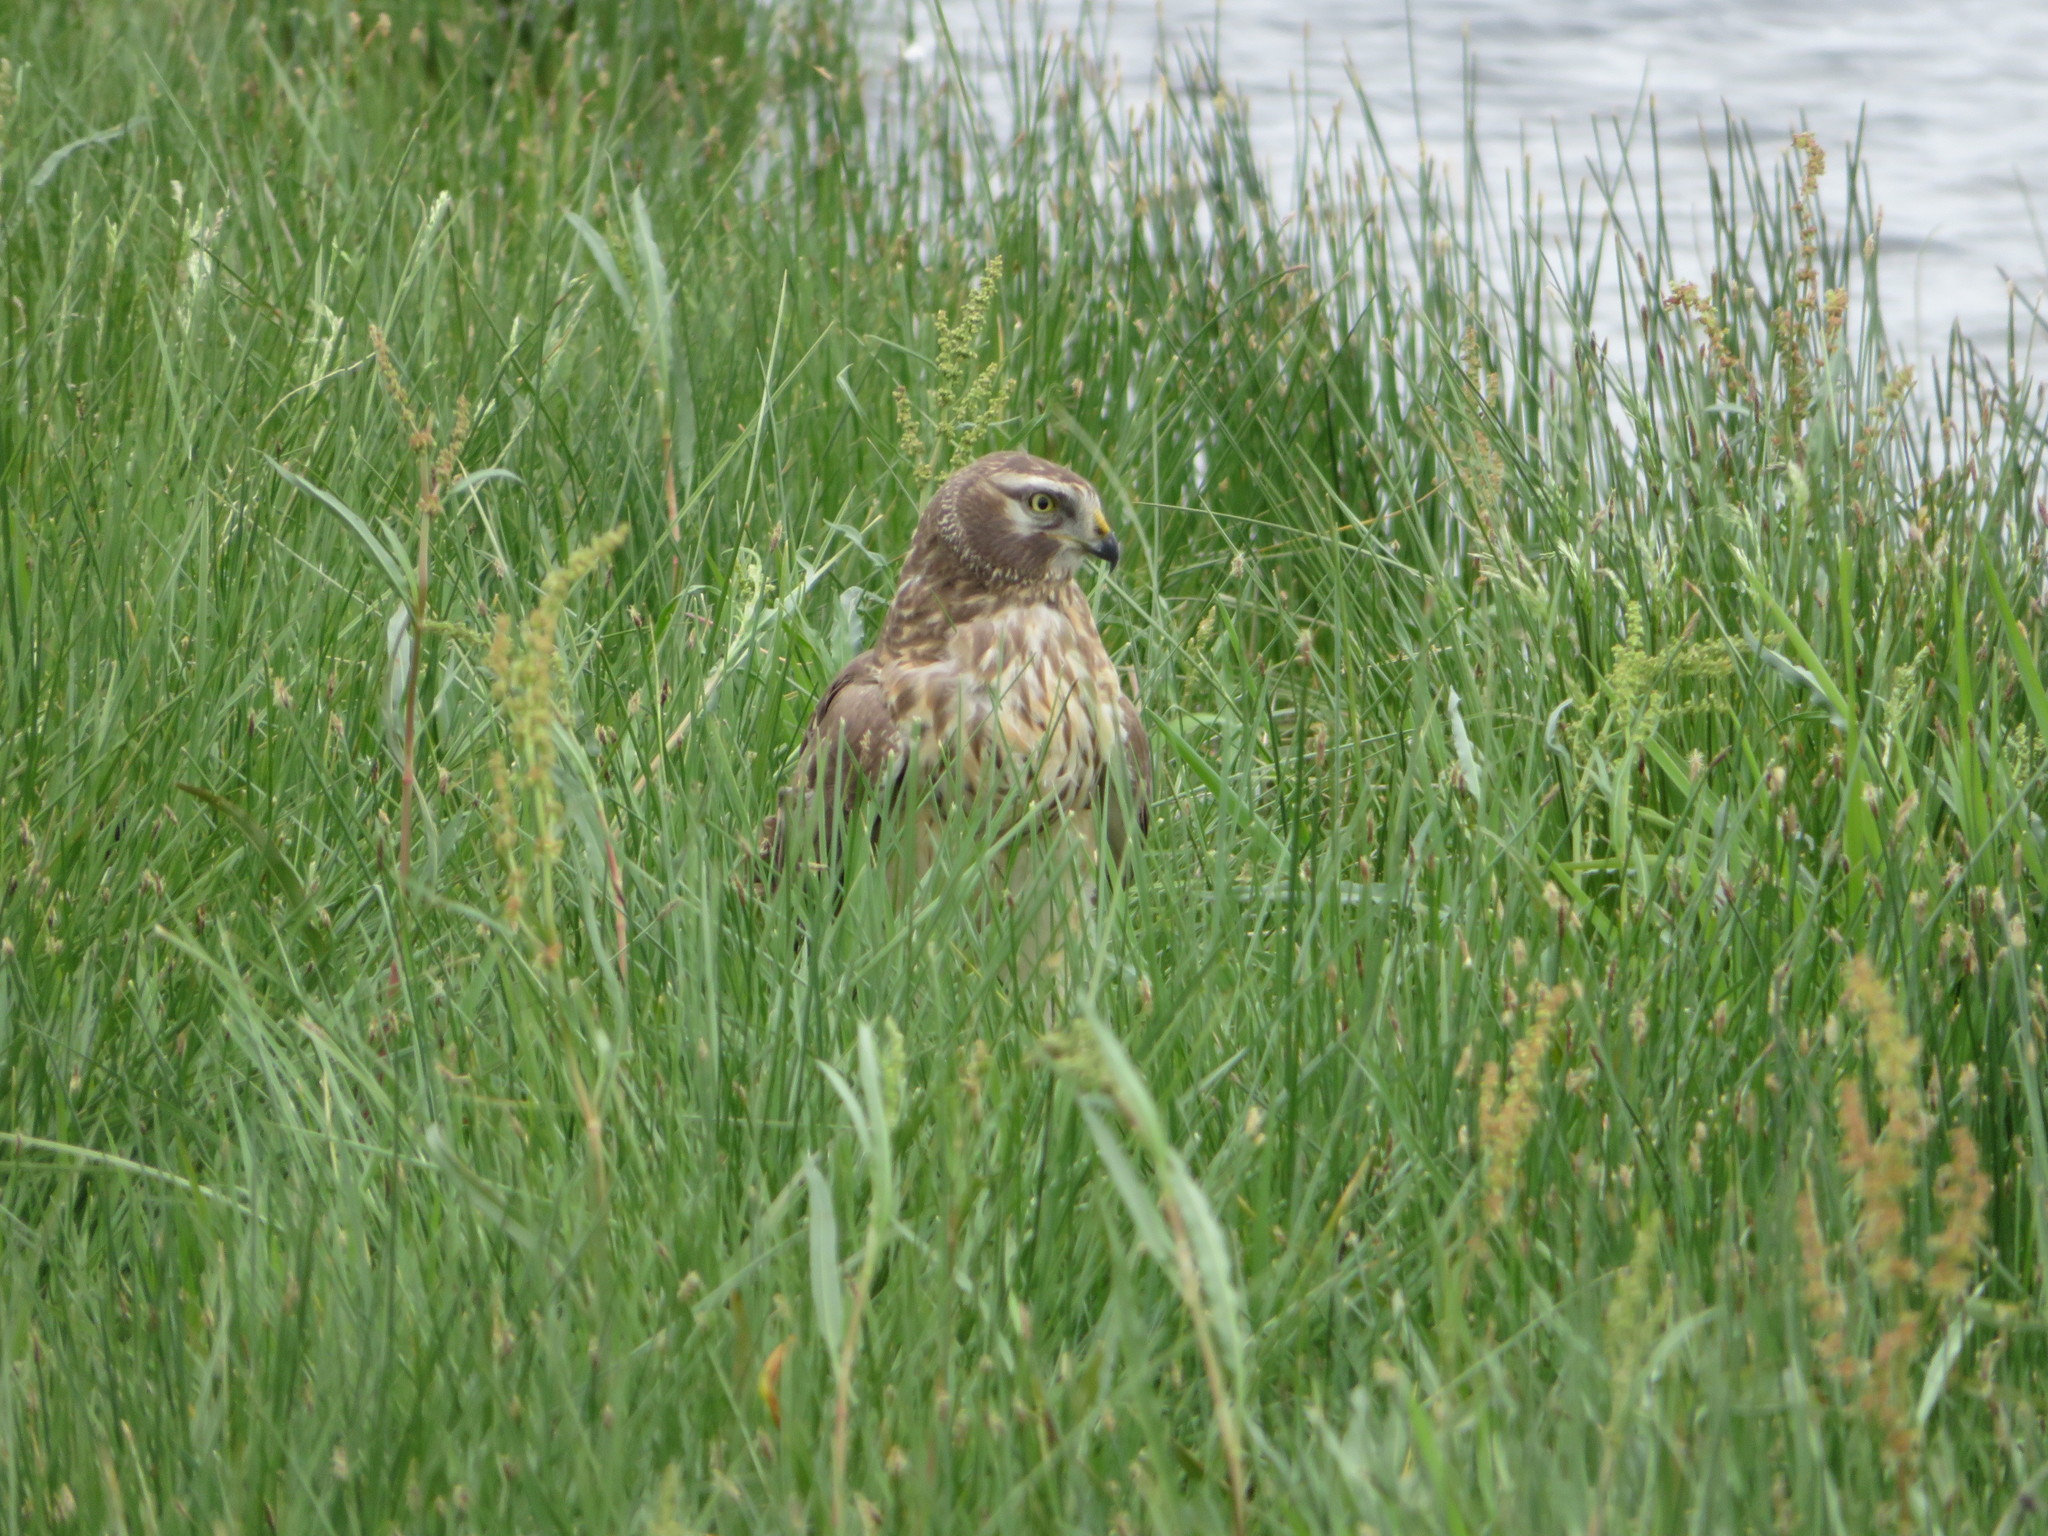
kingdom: Animalia
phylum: Chordata
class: Aves
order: Accipitriformes
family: Accipitridae
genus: Circus
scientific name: Circus cyaneus
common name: Hen harrier
